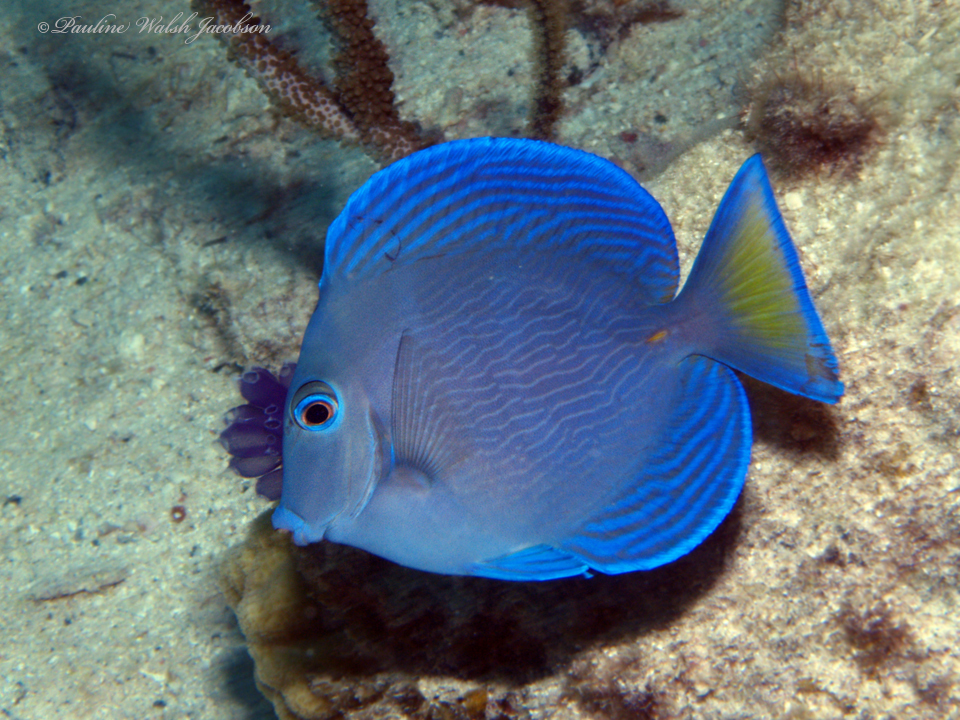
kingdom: Animalia
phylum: Chordata
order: Perciformes
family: Acanthuridae
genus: Acanthurus
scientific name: Acanthurus coeruleus
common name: Blue tang
